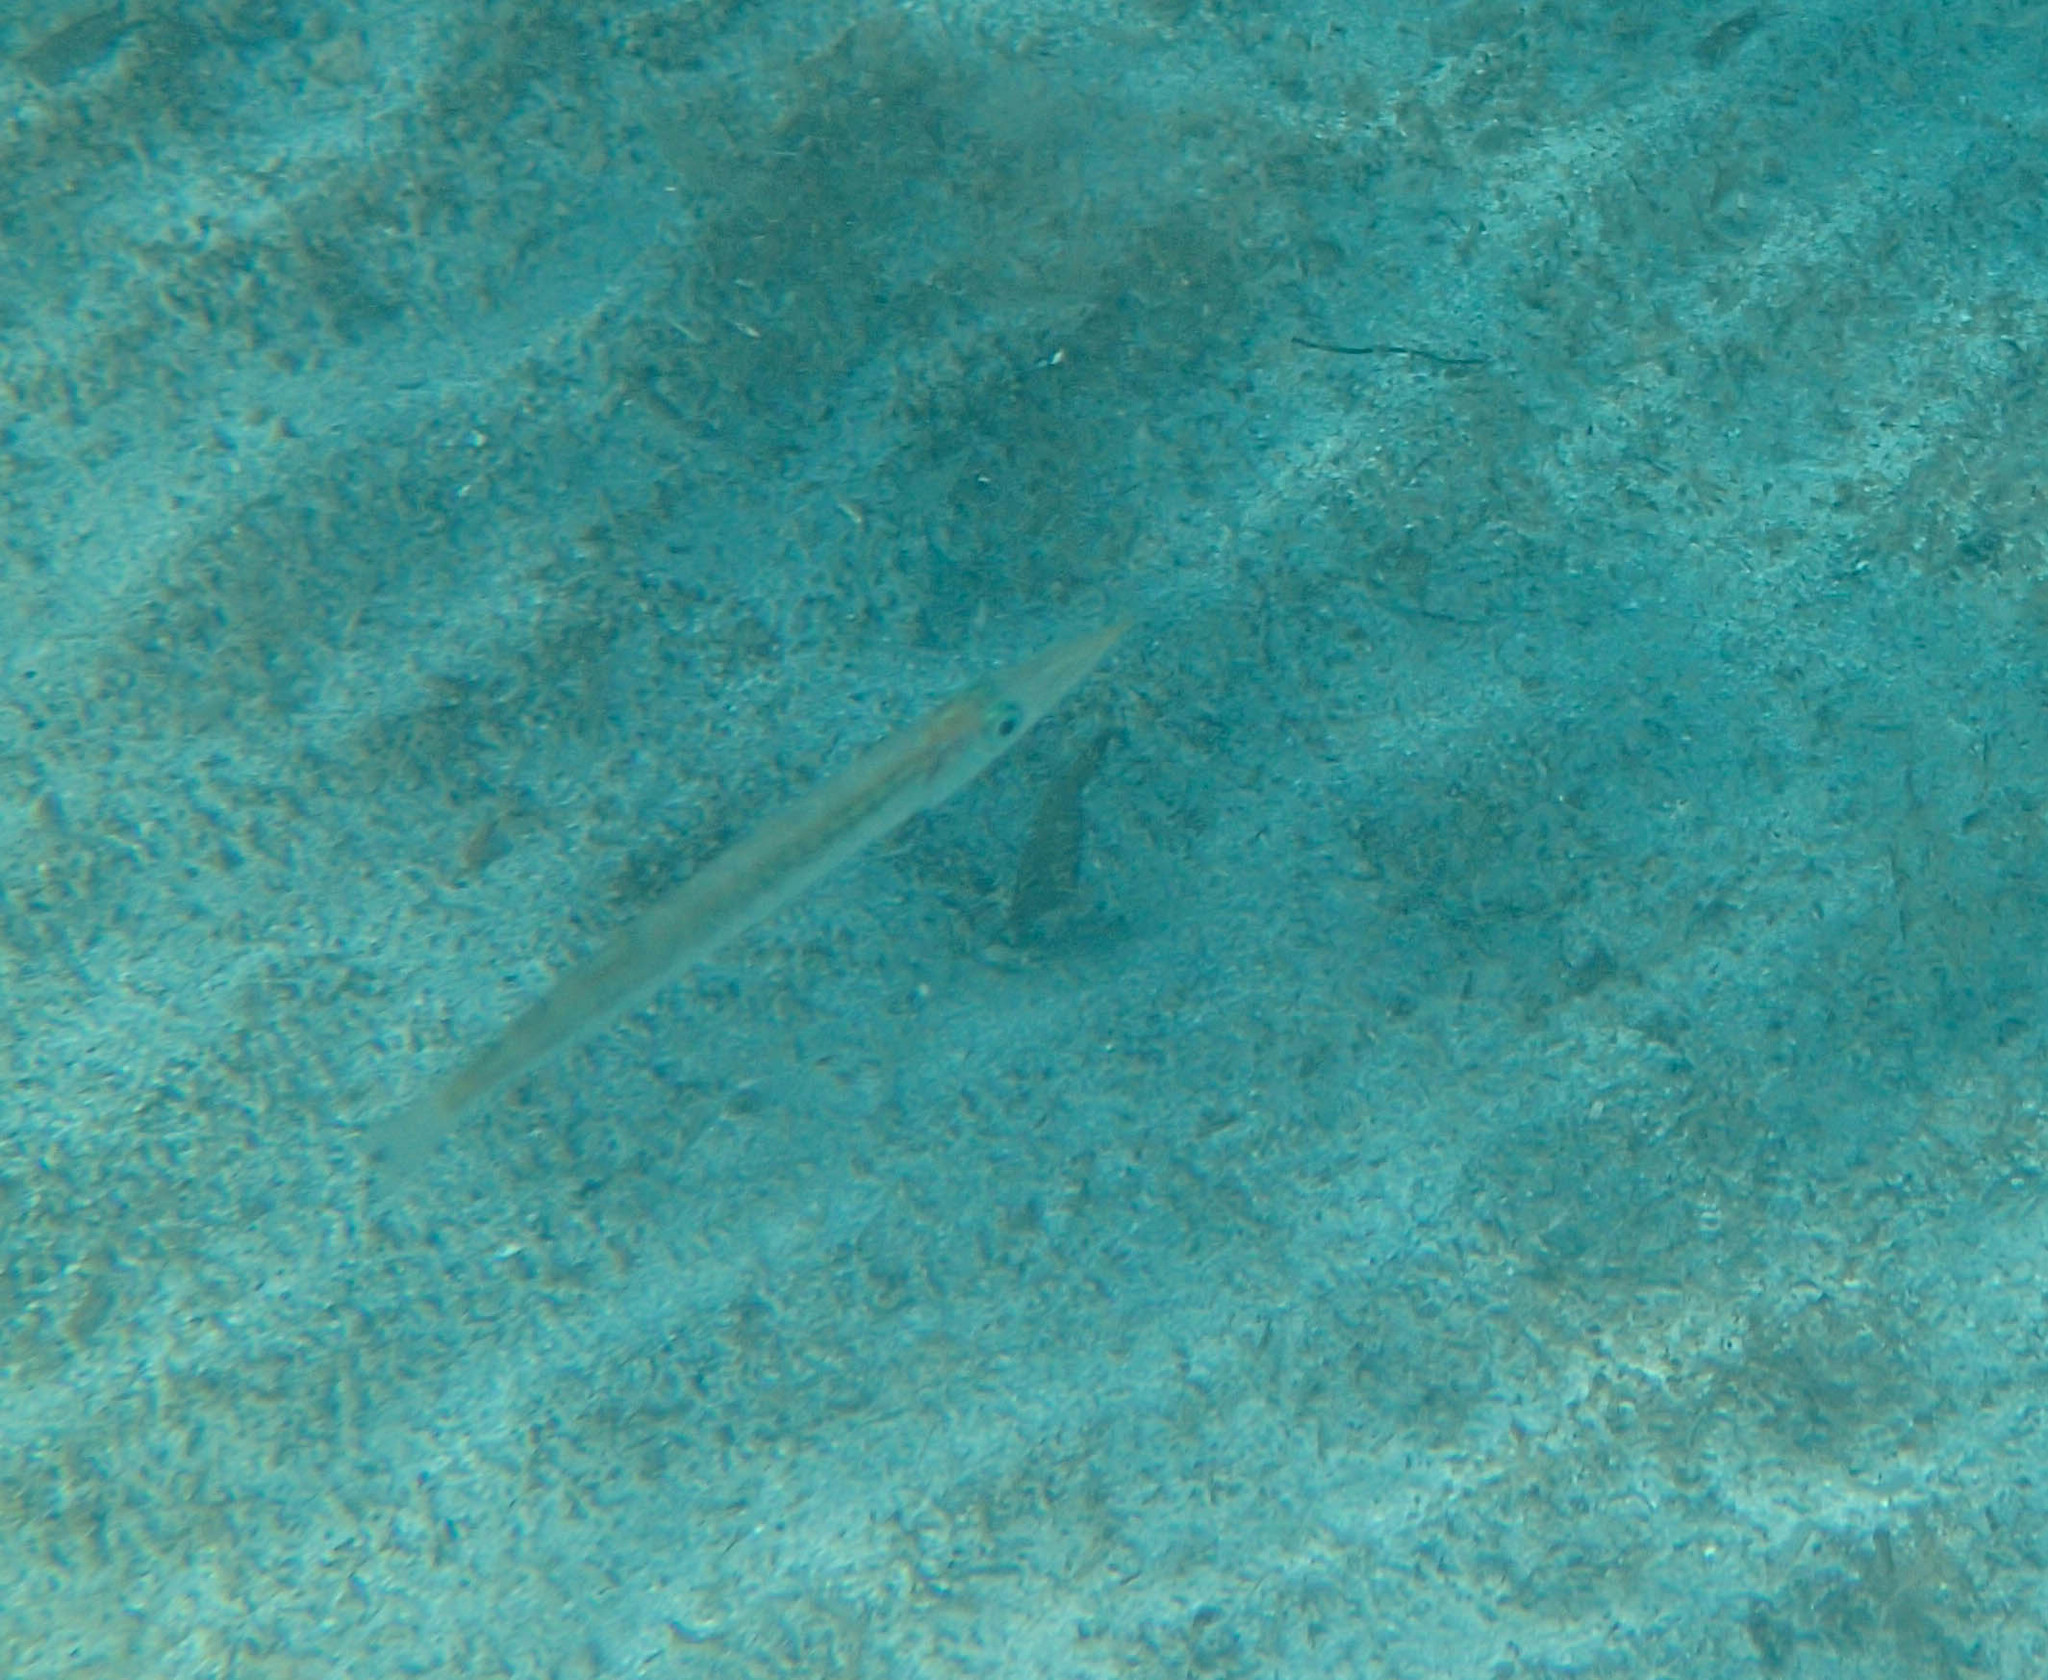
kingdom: Animalia
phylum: Chordata
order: Perciformes
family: Sphyraenidae
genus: Sphyraena
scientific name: Sphyraena
